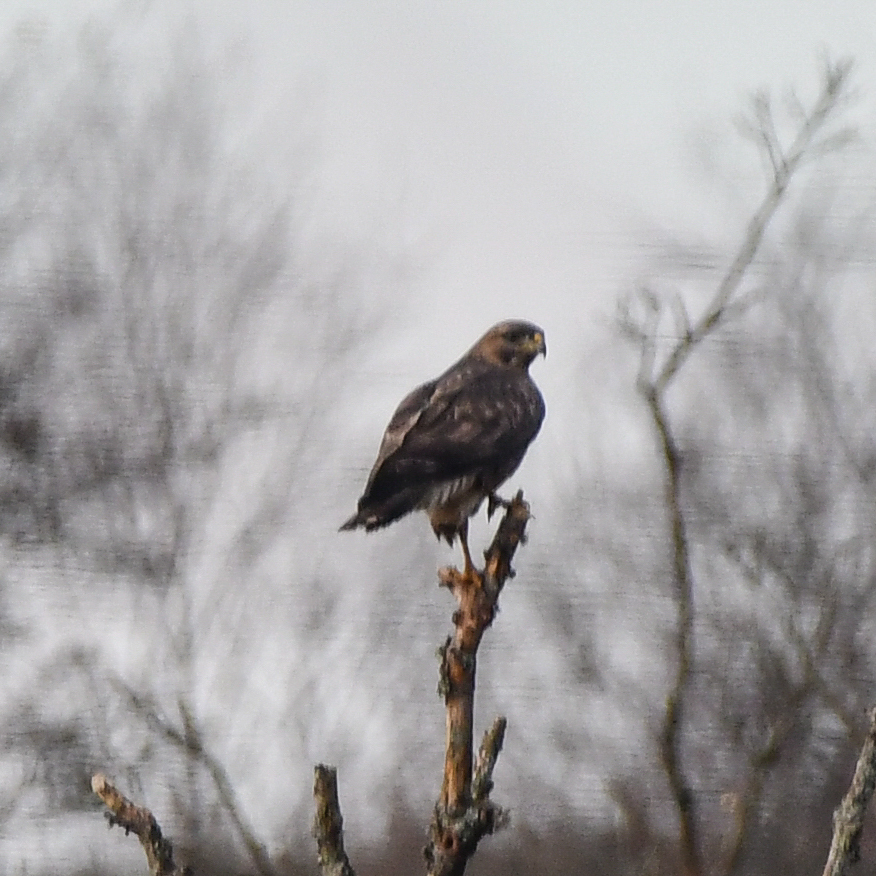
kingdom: Animalia
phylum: Chordata
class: Aves
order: Accipitriformes
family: Accipitridae
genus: Buteo
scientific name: Buteo buteo
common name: Common buzzard
